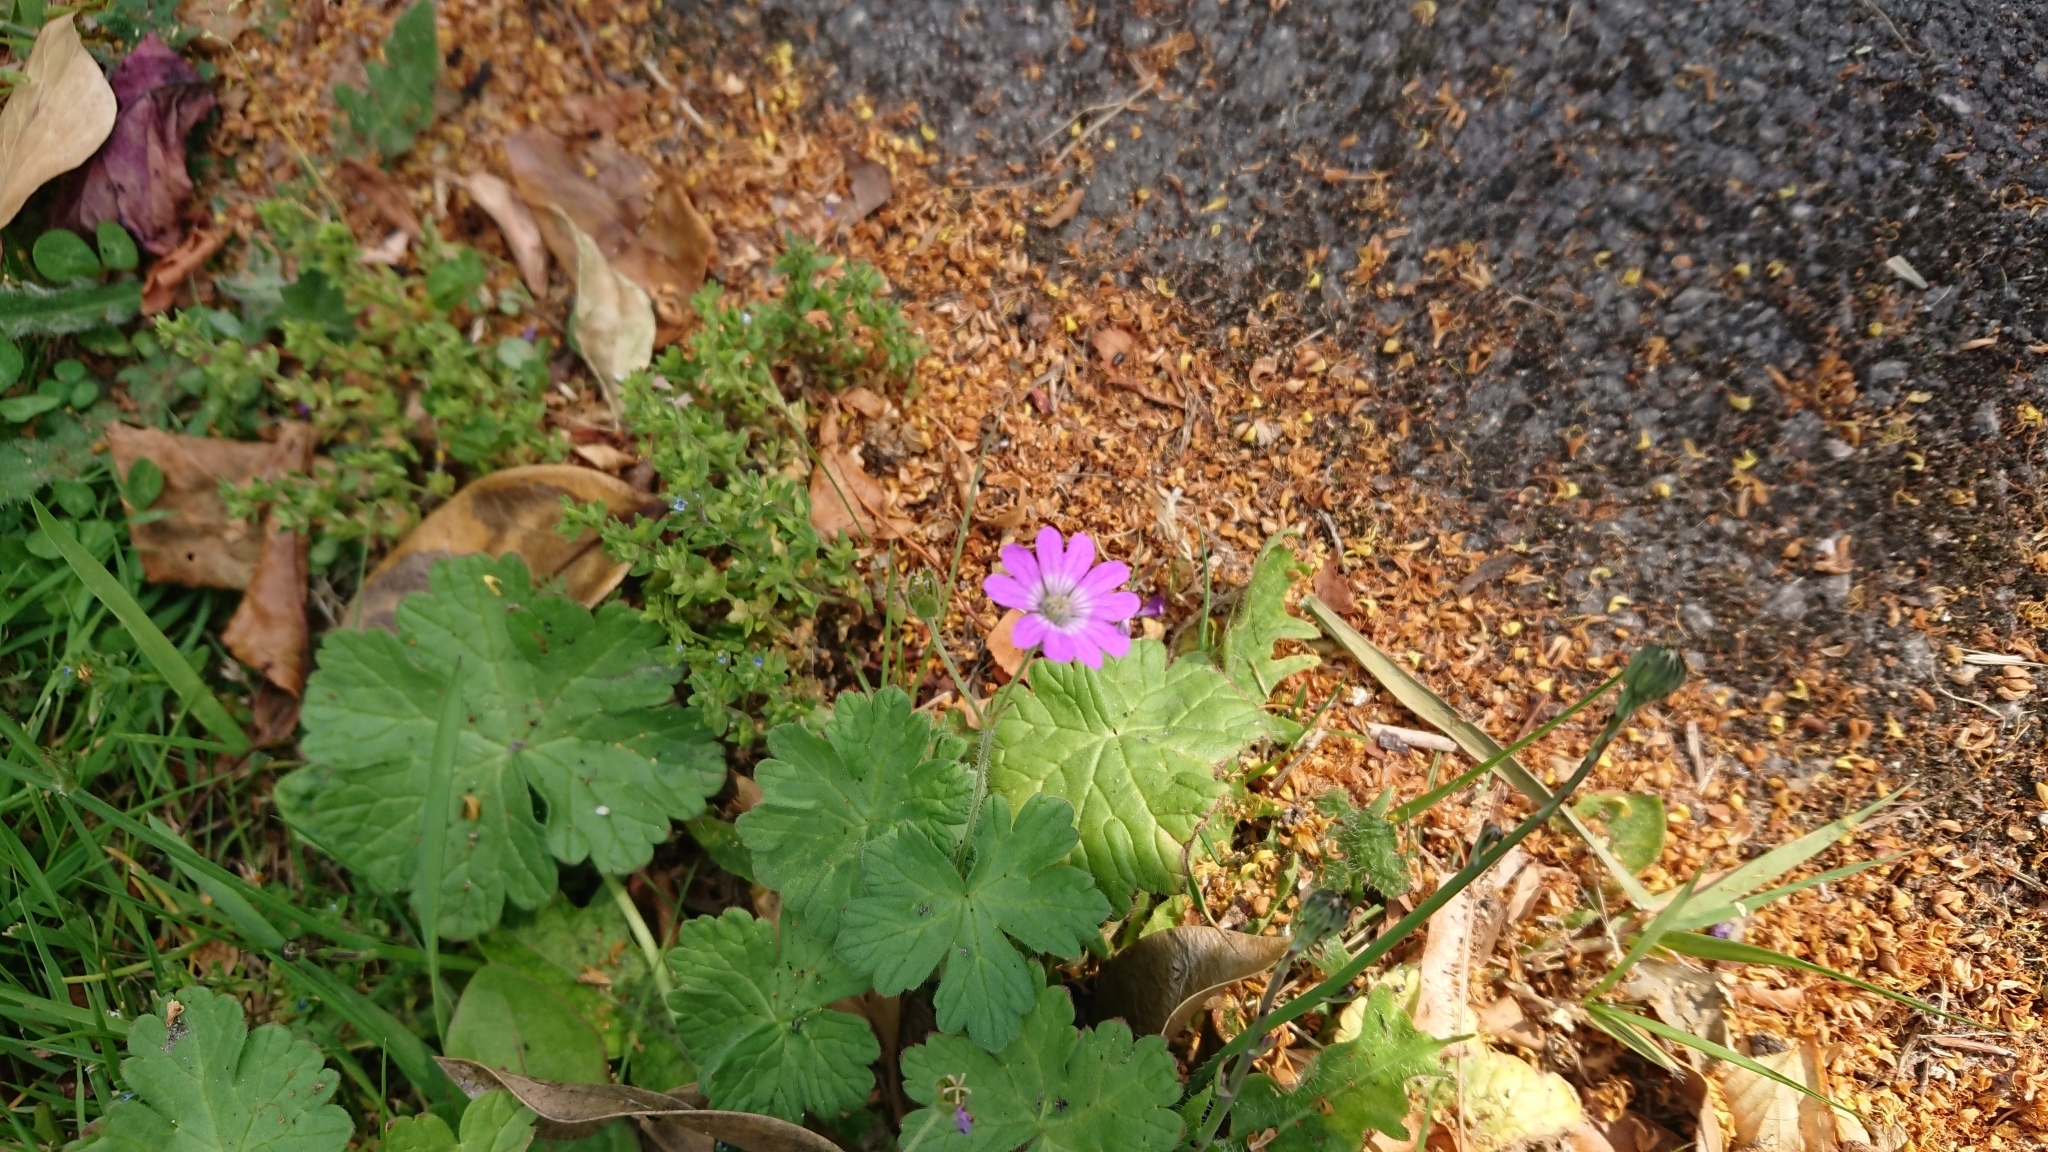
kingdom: Plantae
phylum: Tracheophyta
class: Magnoliopsida
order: Geraniales
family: Geraniaceae
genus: Geranium
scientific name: Geranium pyrenaicum
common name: Hedgerow crane's-bill
